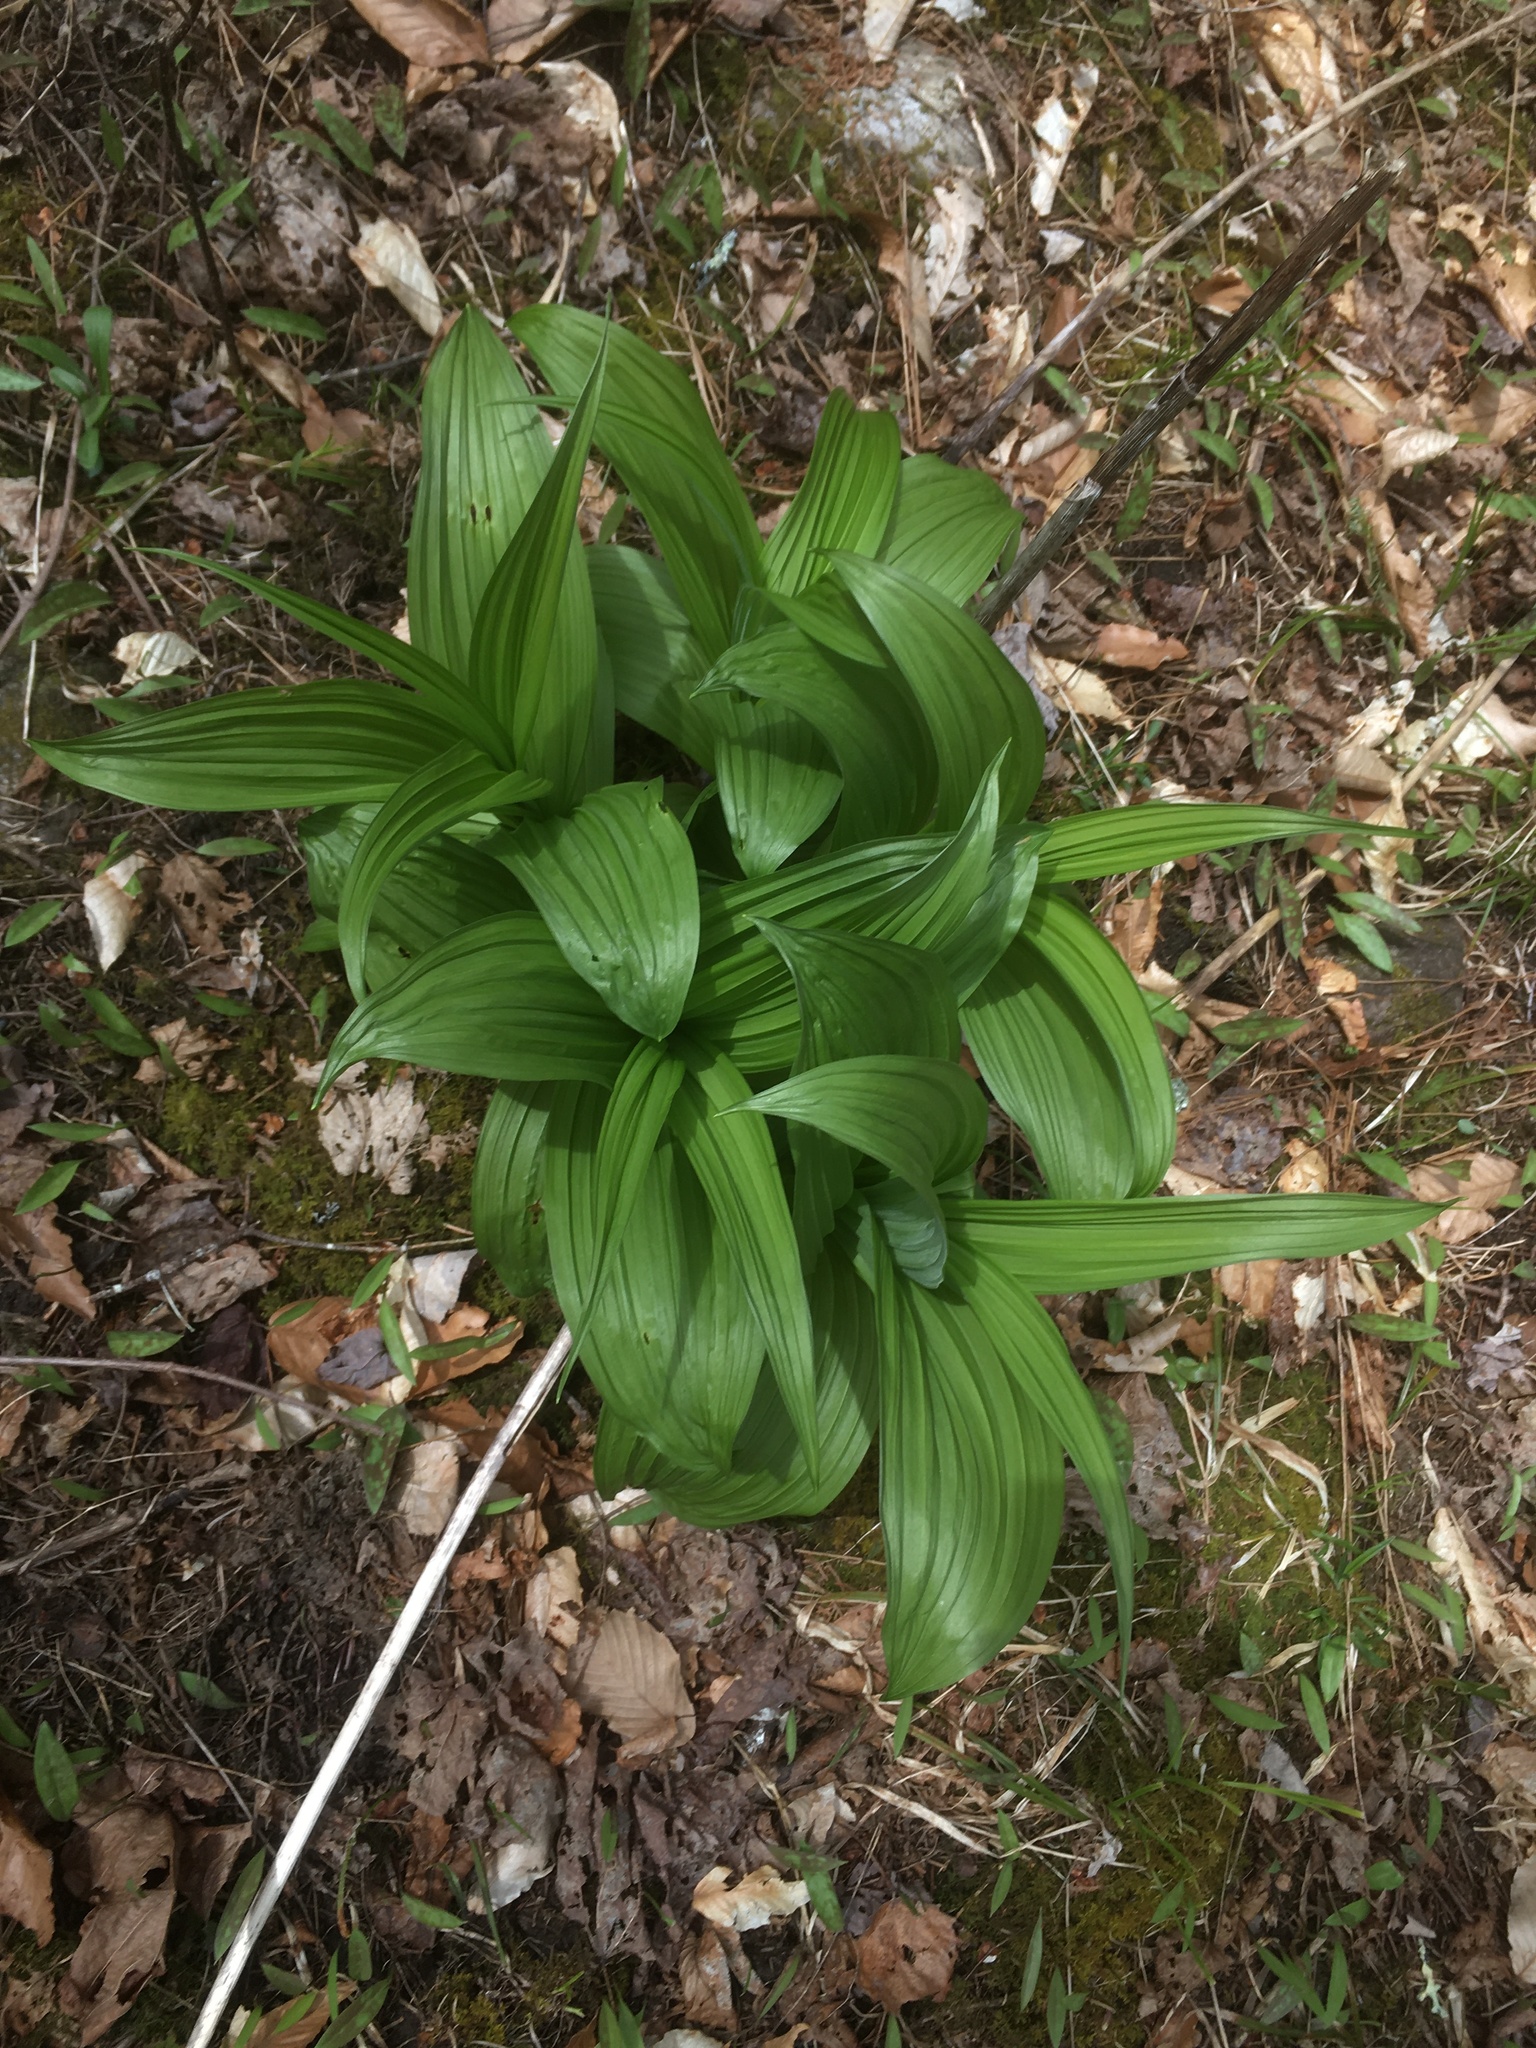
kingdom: Plantae
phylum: Tracheophyta
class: Liliopsida
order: Liliales
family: Melanthiaceae
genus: Veratrum
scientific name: Veratrum viride
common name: American false hellebore
